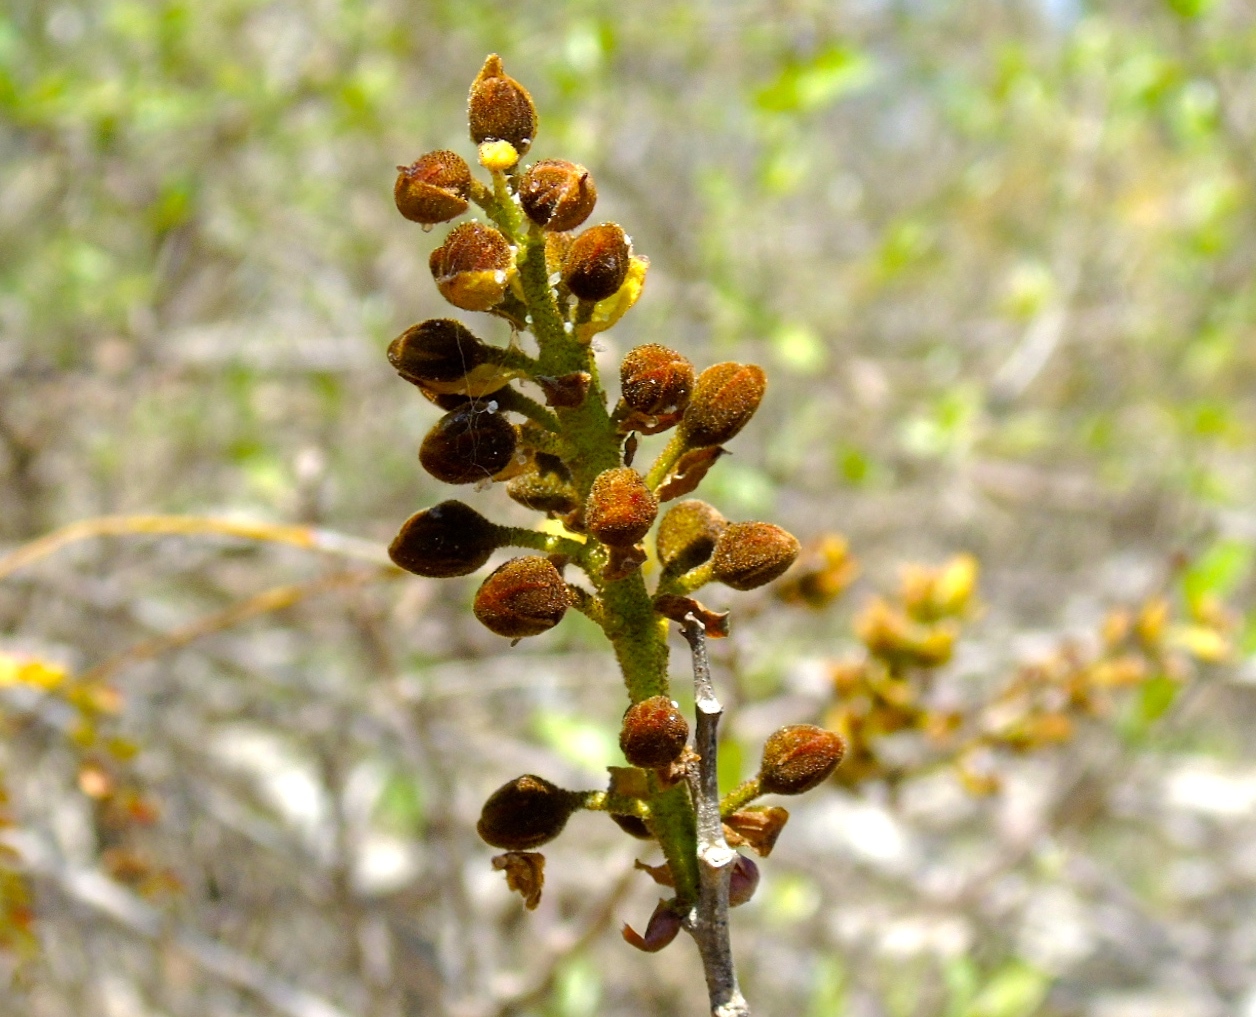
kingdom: Plantae
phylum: Tracheophyta
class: Magnoliopsida
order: Fabales
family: Fabaceae
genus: Cenostigma
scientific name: Cenostigma eriostachys
